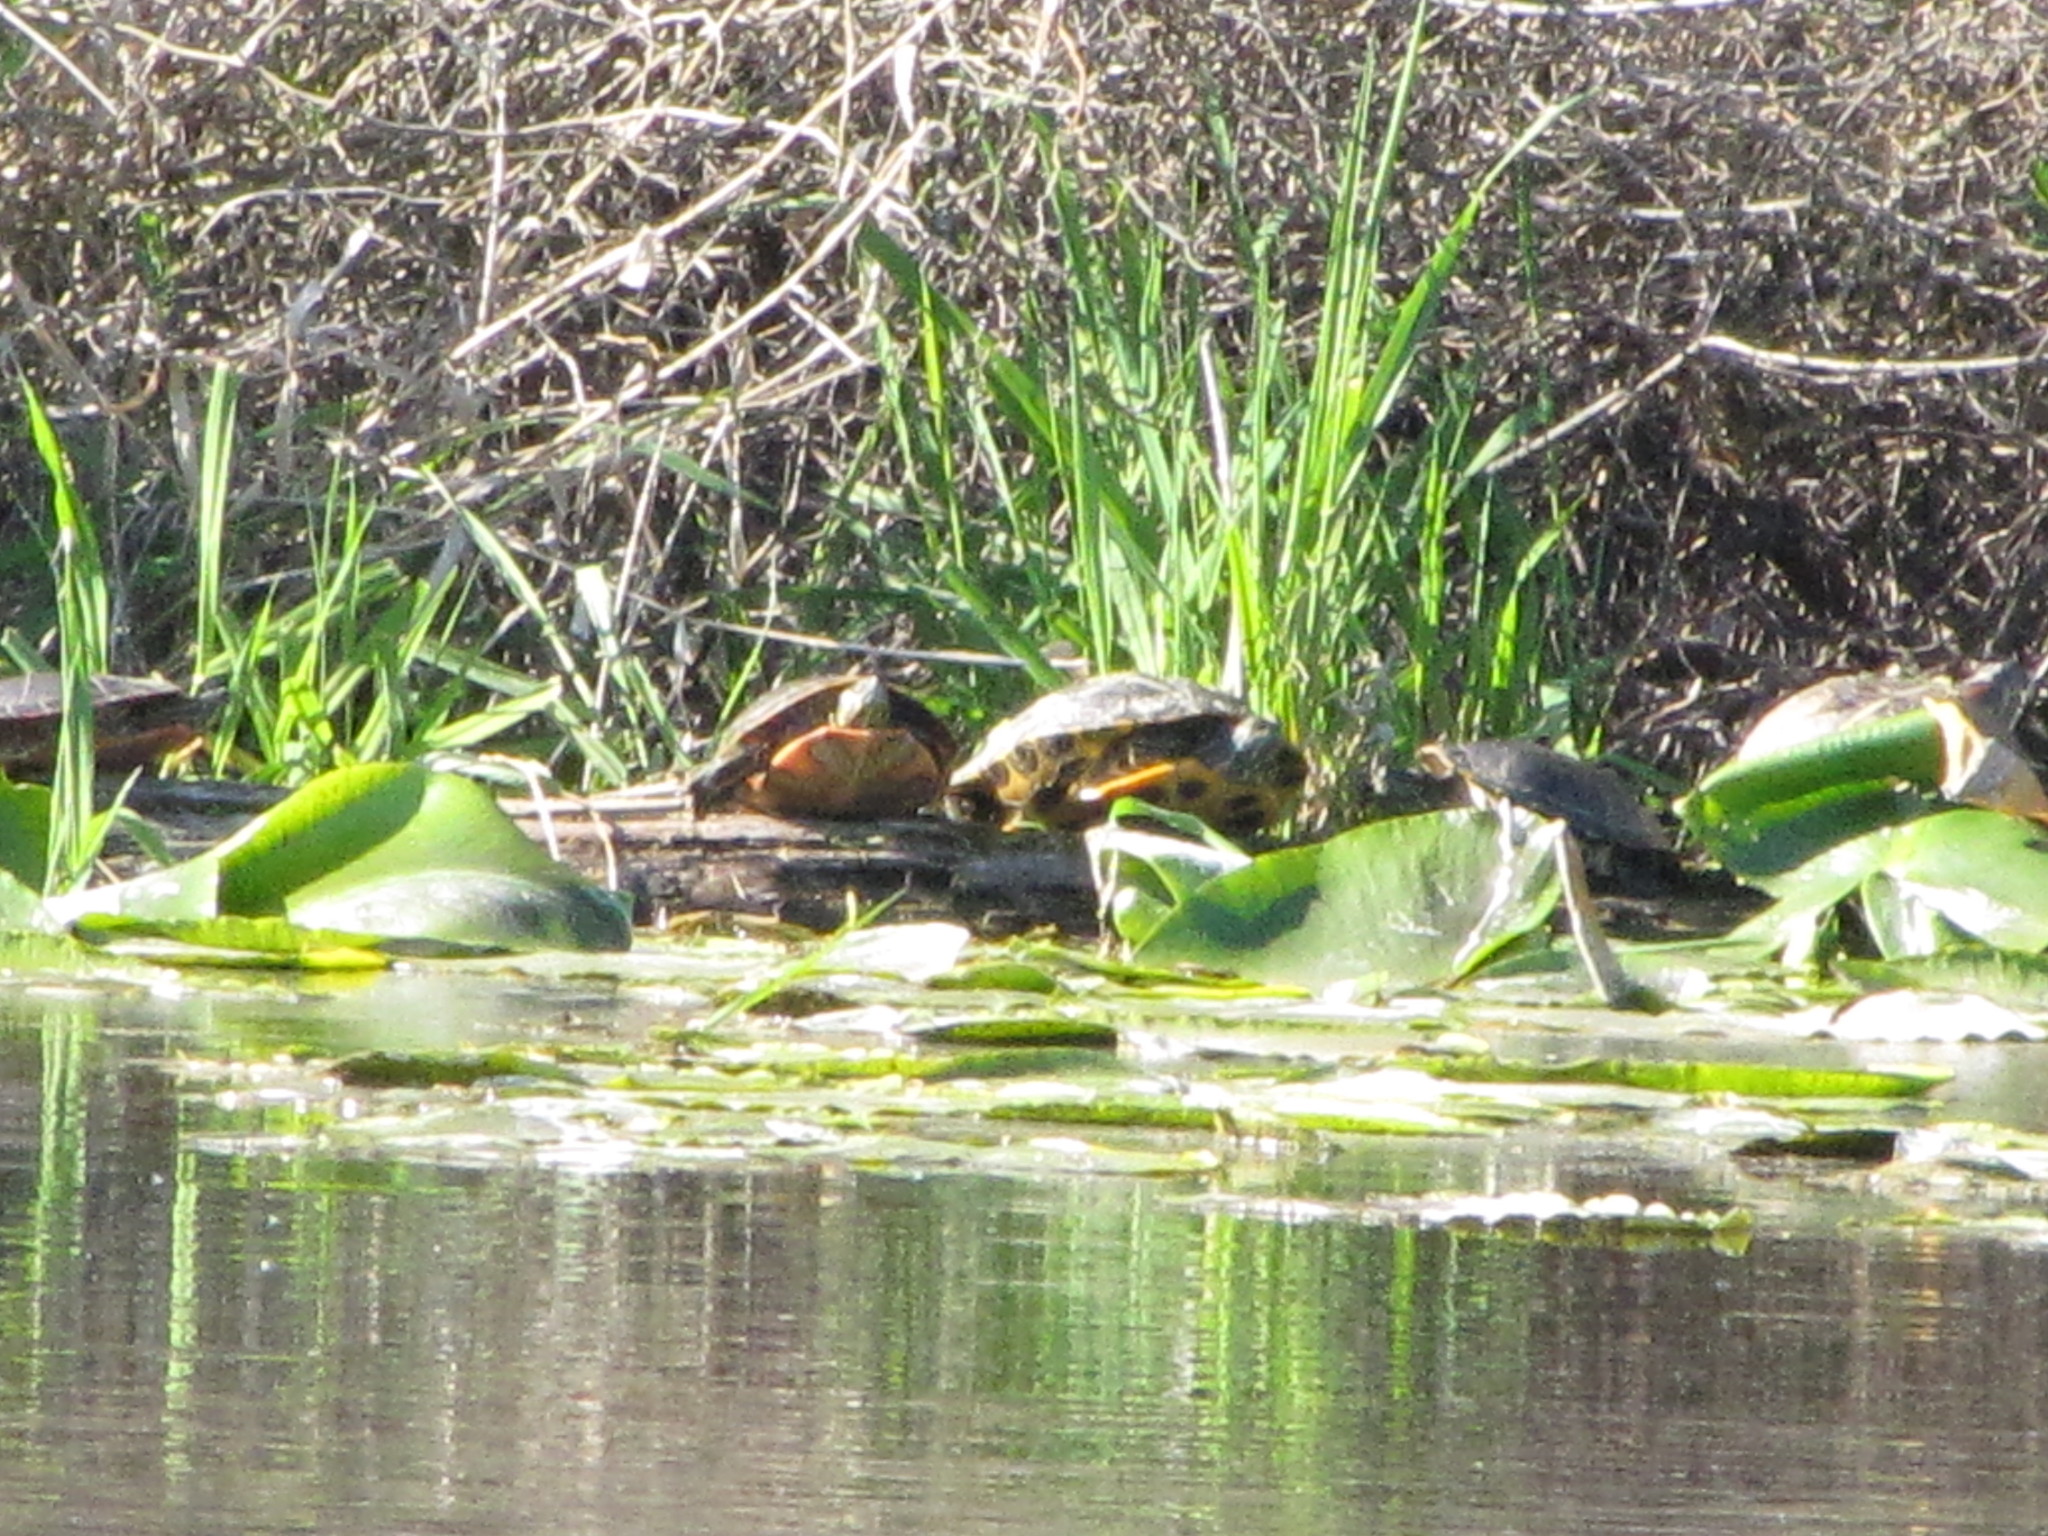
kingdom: Animalia
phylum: Chordata
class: Testudines
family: Emydidae
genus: Chrysemys
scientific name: Chrysemys picta
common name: Painted turtle
